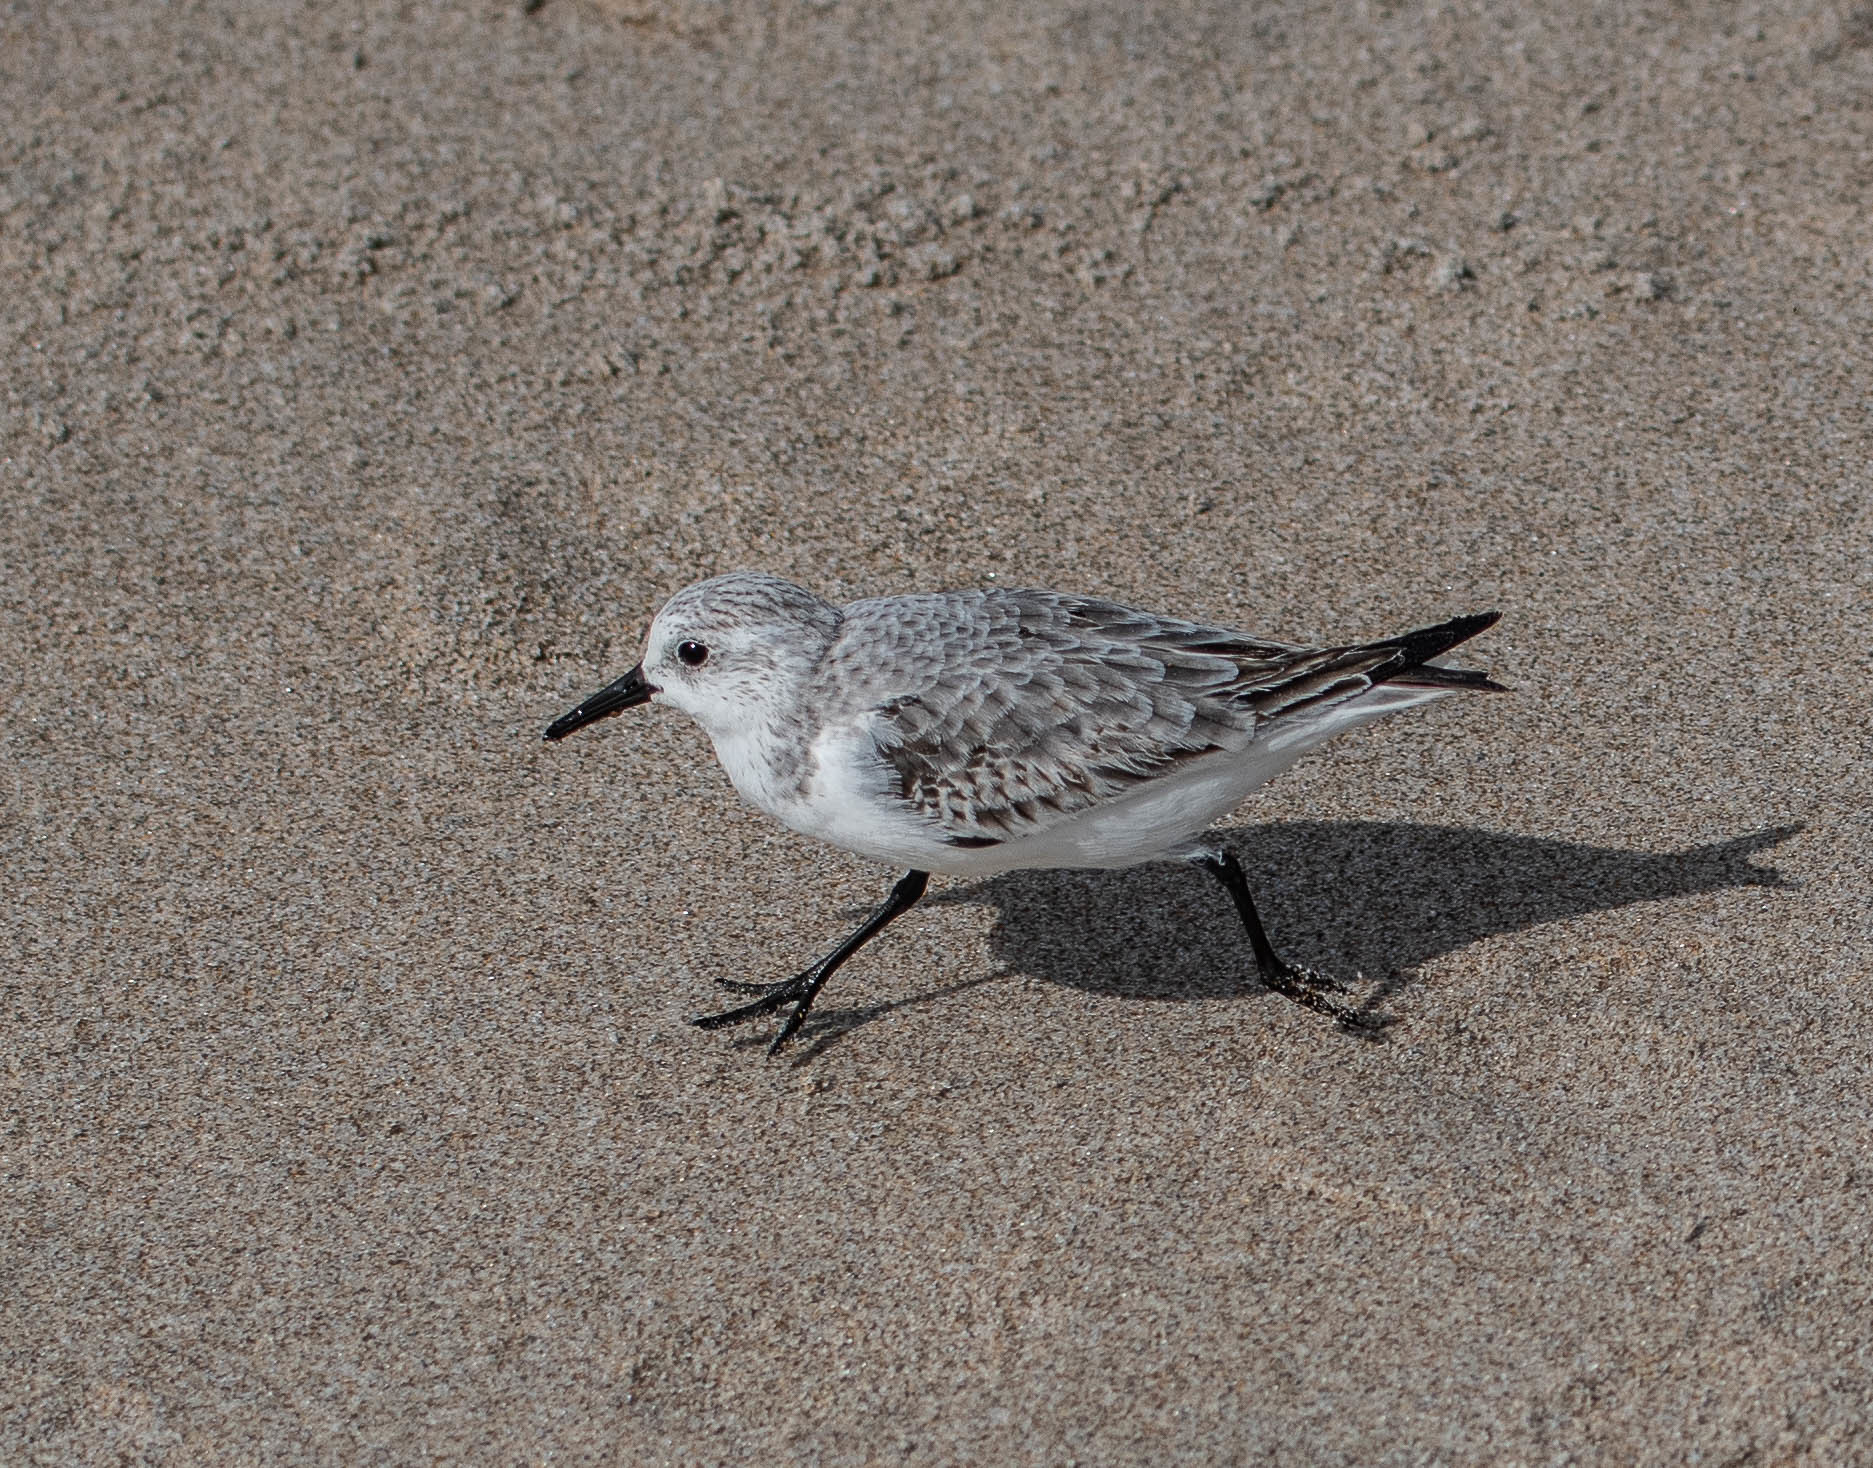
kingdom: Animalia
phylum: Chordata
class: Aves
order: Charadriiformes
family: Scolopacidae
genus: Calidris
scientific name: Calidris alba
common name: Sanderling
